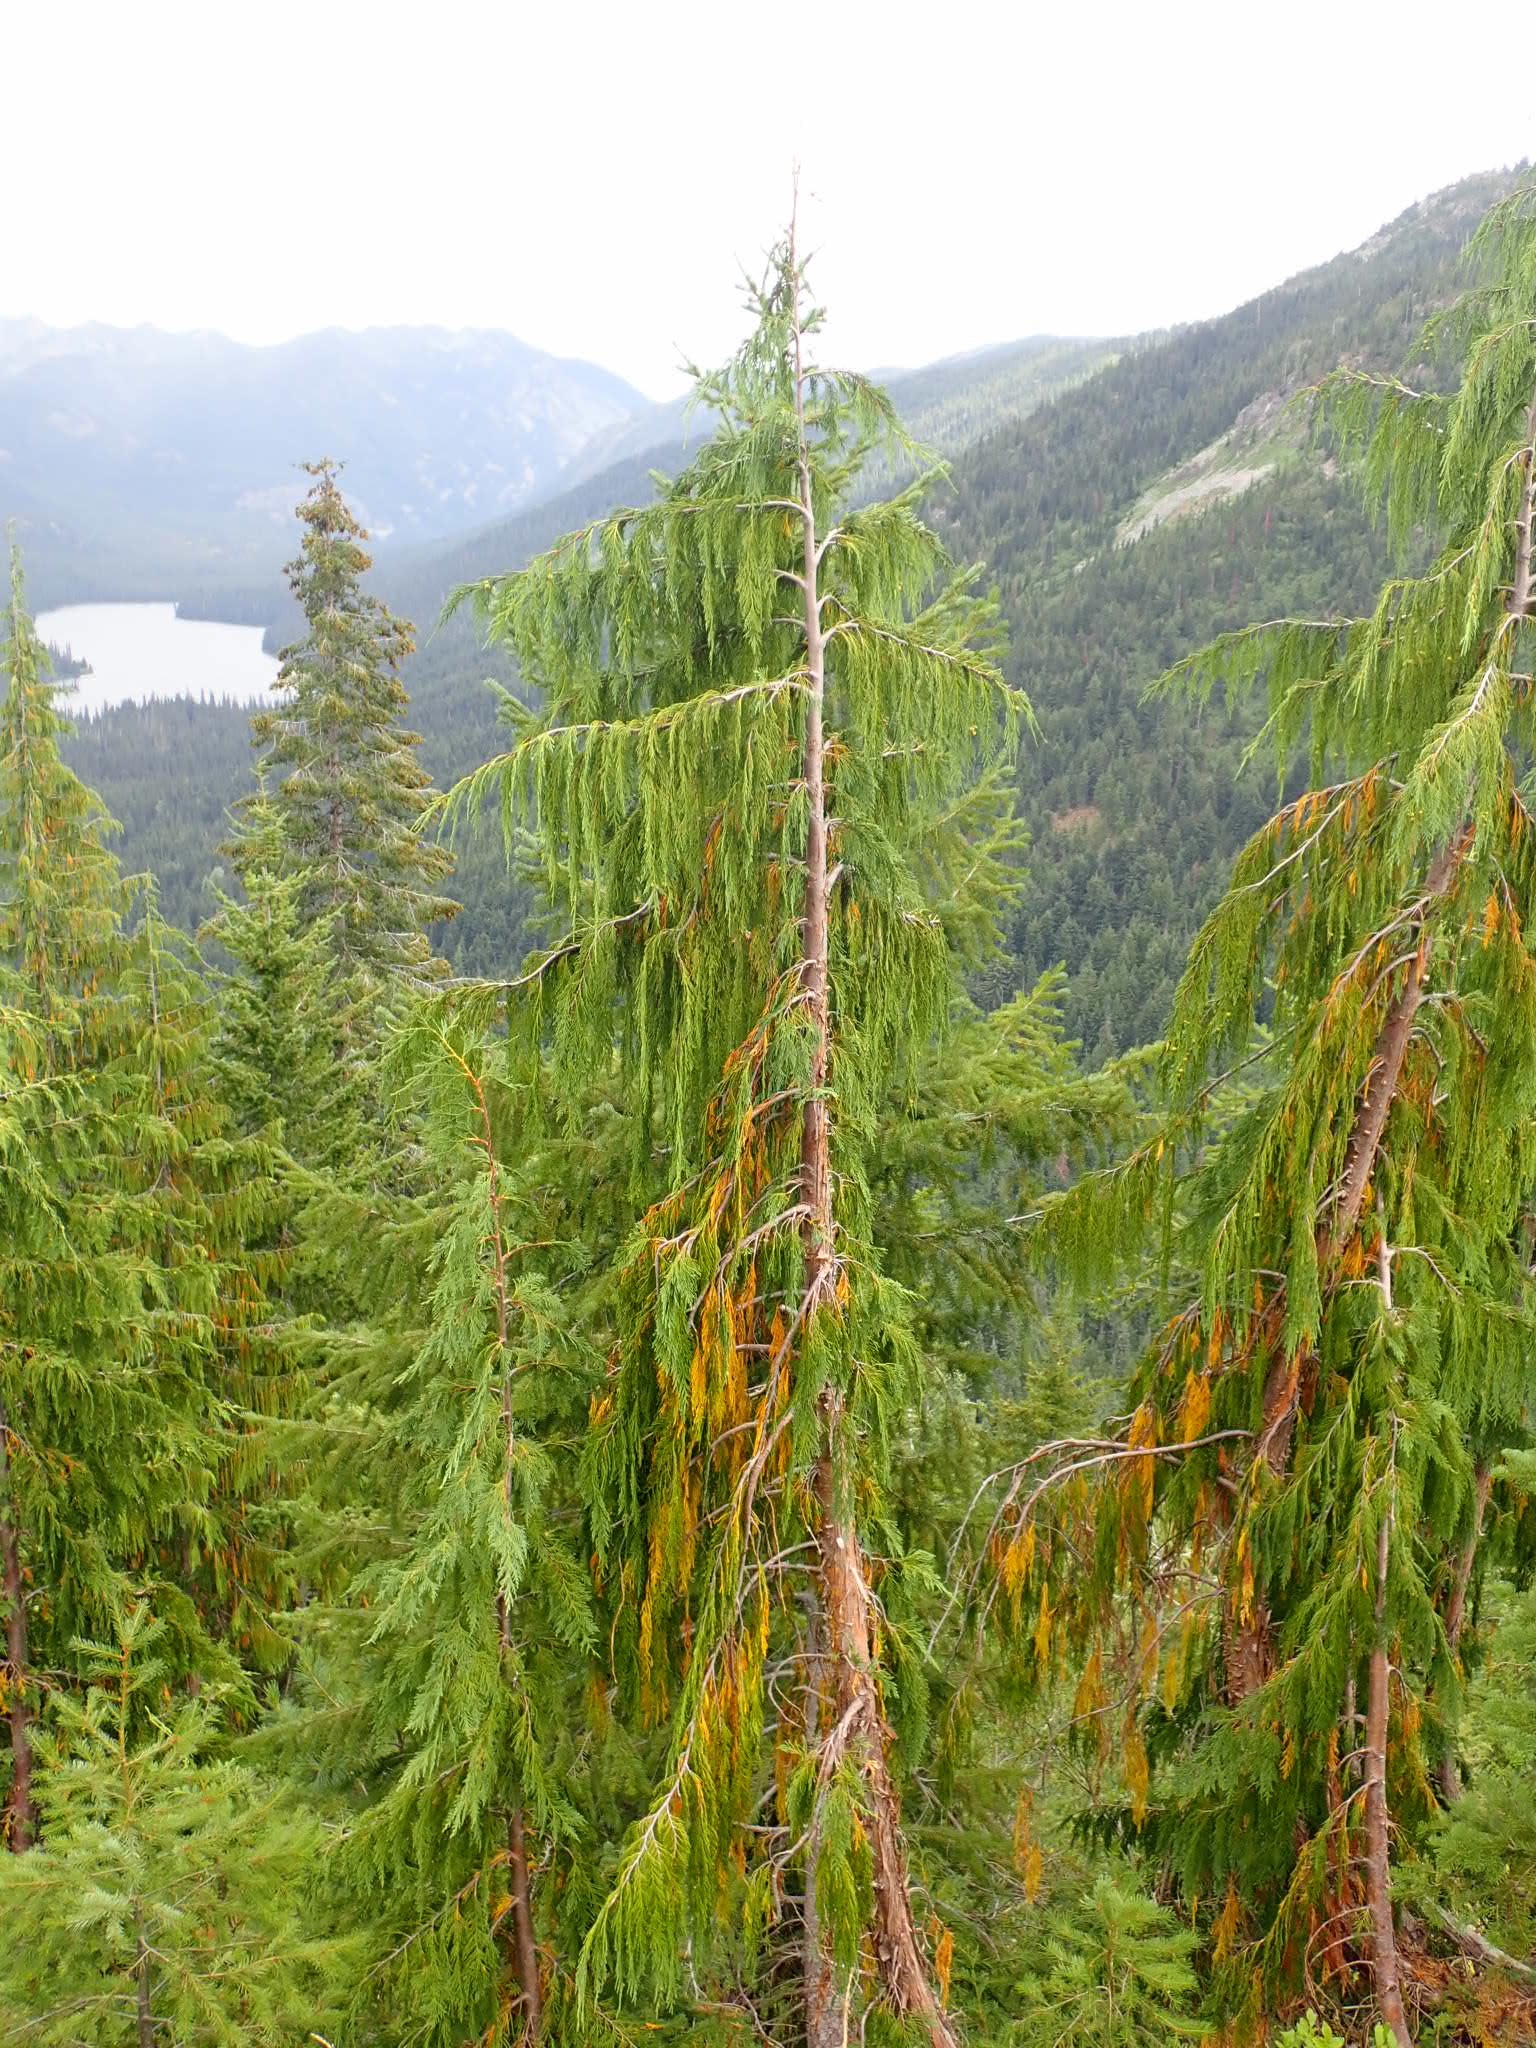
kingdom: Plantae
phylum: Tracheophyta
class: Pinopsida
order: Pinales
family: Cupressaceae
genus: Xanthocyparis
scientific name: Xanthocyparis nootkatensis
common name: Nootka cypress
